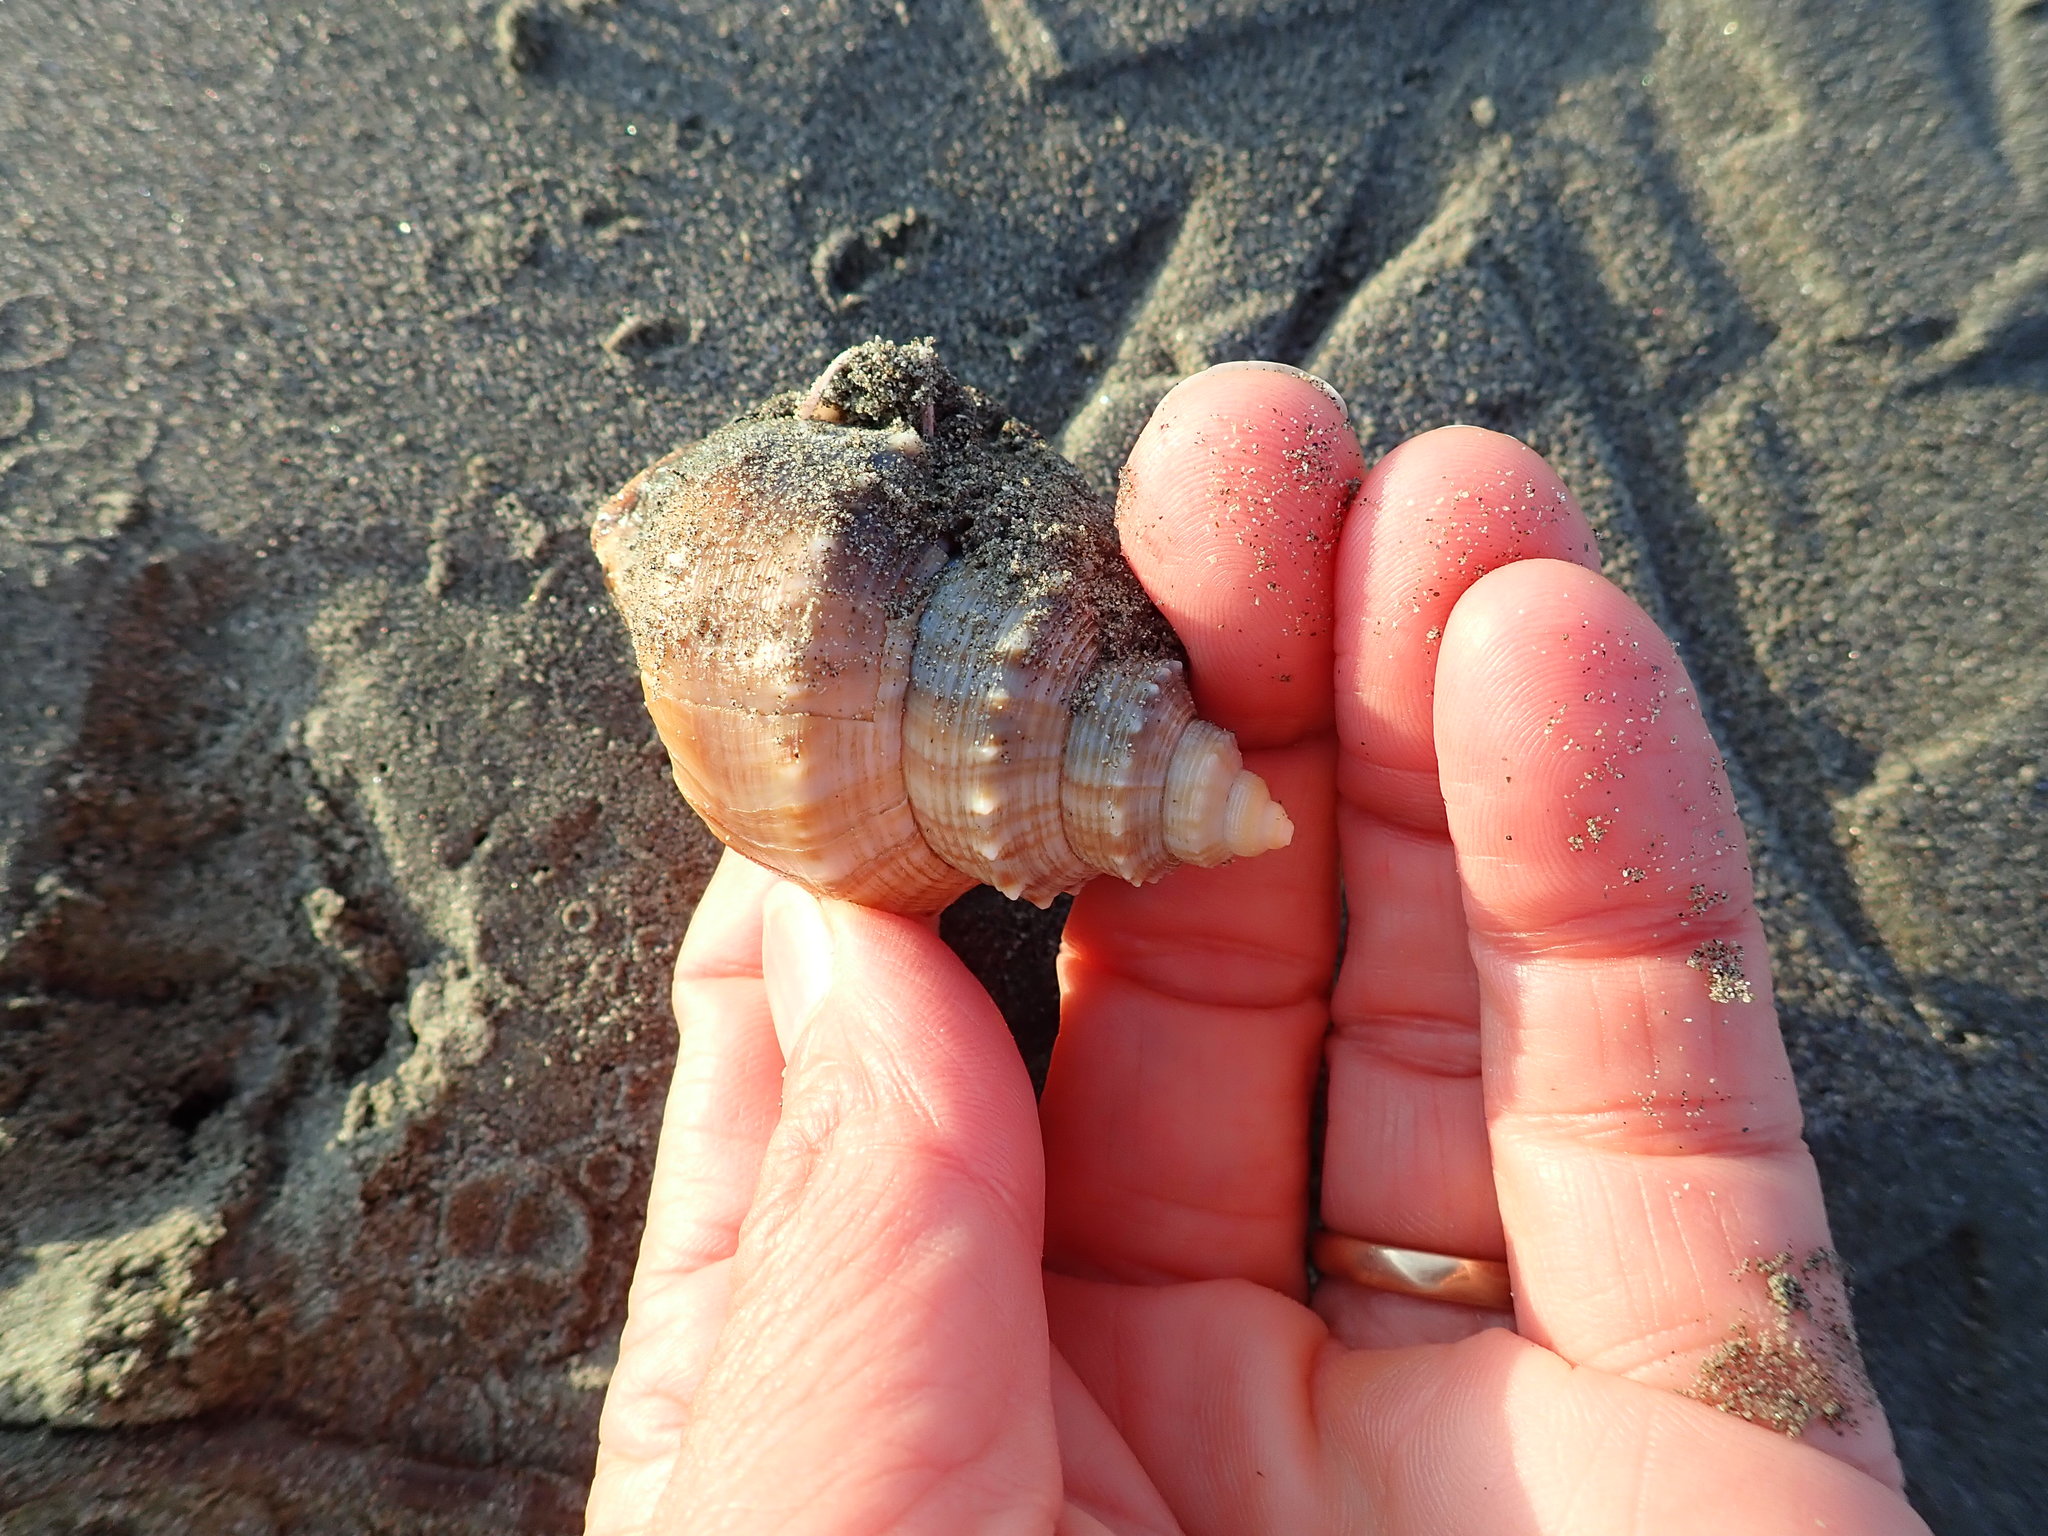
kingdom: Animalia
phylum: Mollusca
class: Gastropoda
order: Littorinimorpha
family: Struthiolariidae
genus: Struthiolaria
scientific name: Struthiolaria papulosa
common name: Large ostrich foot
